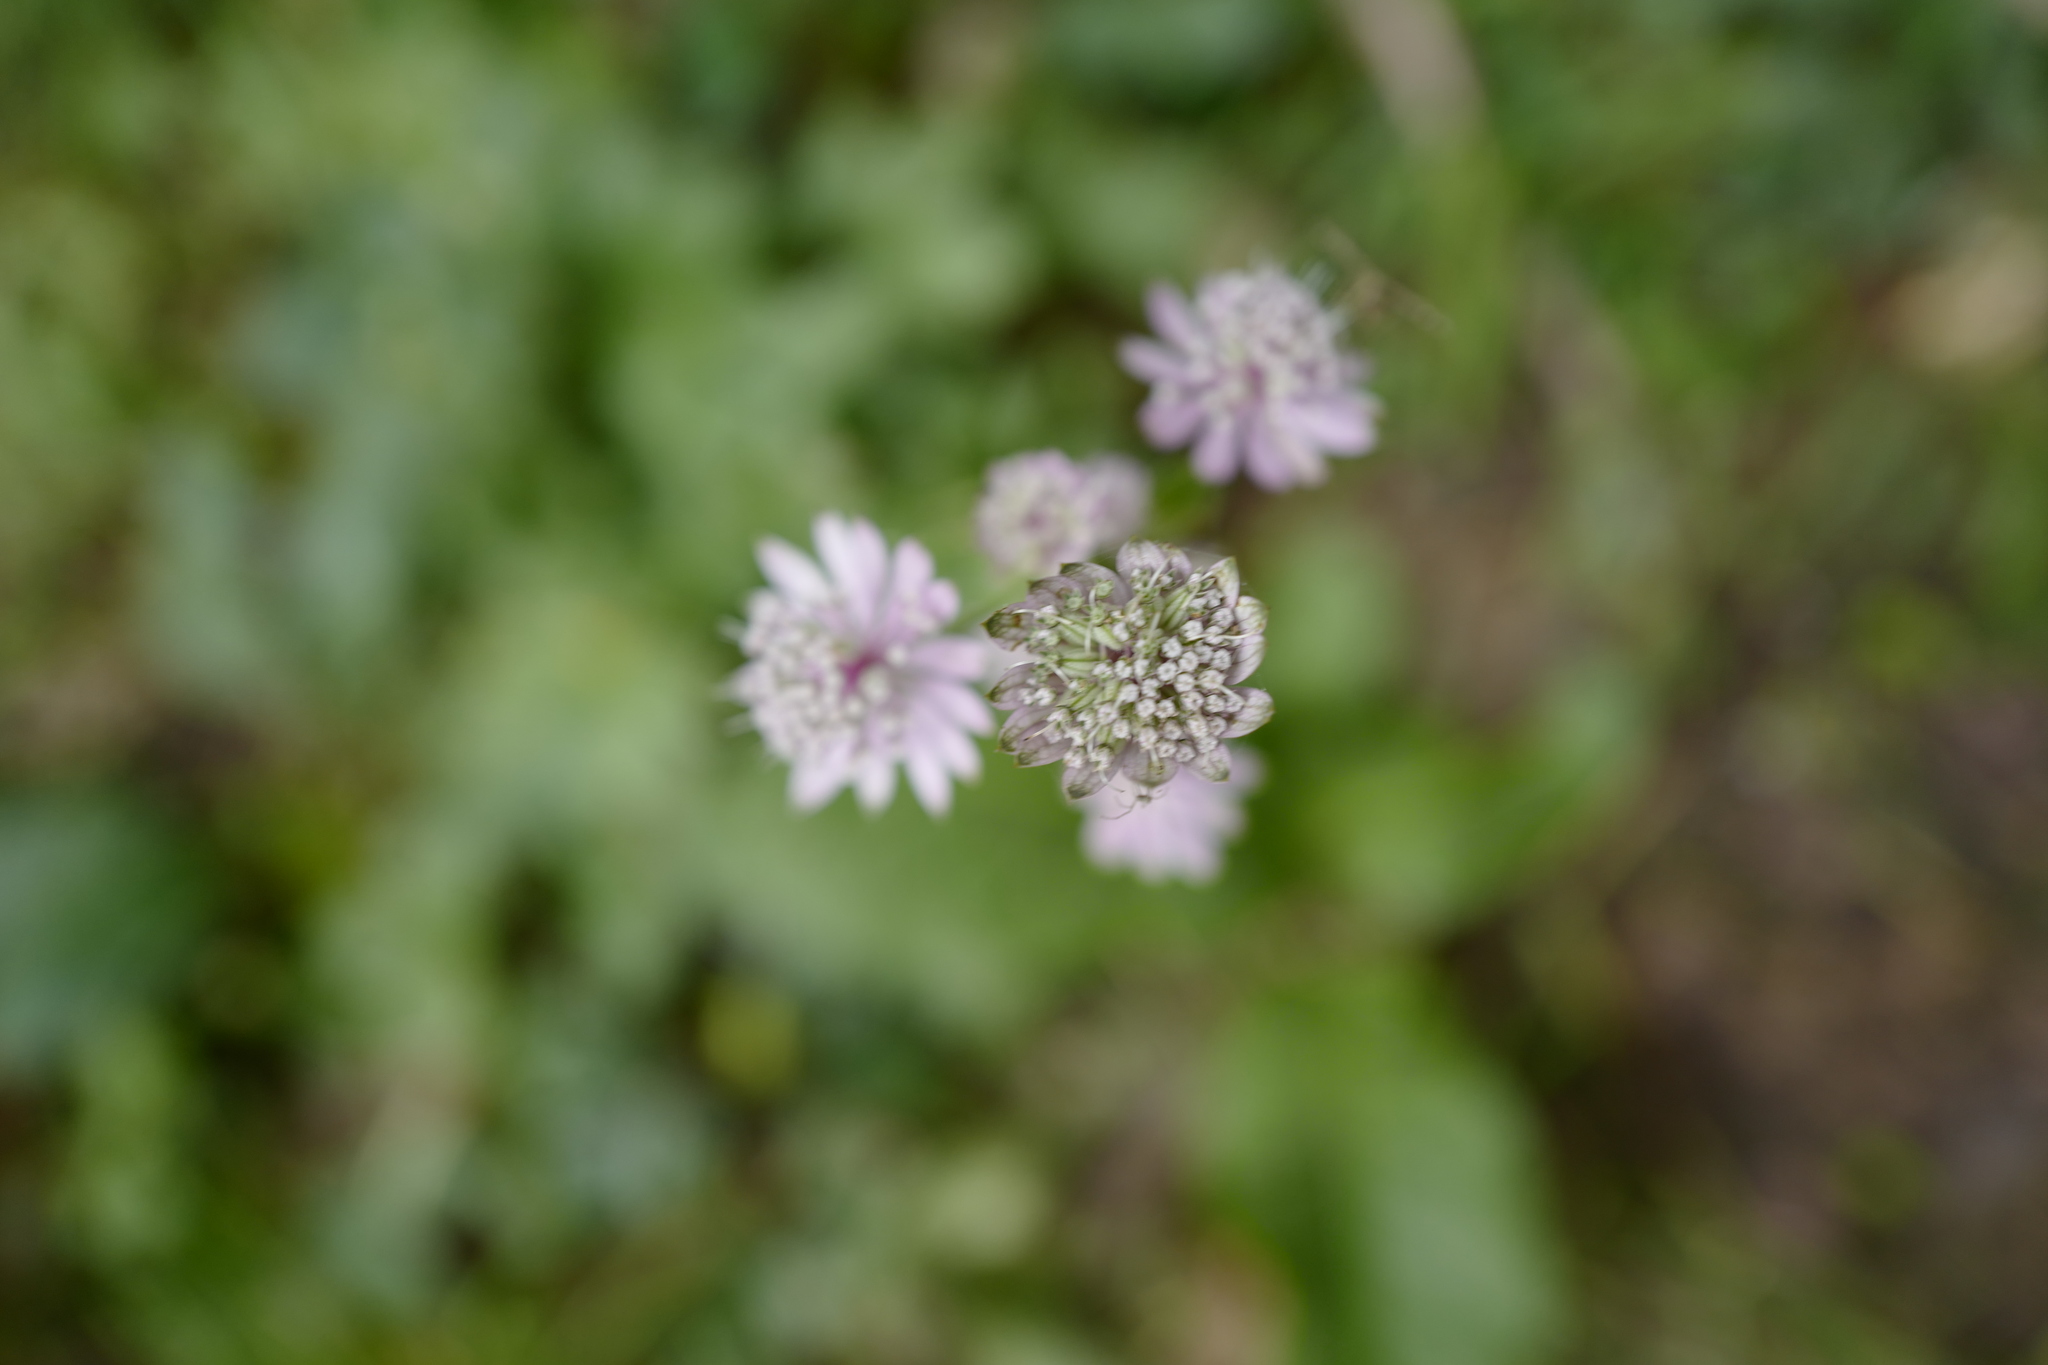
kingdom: Plantae
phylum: Tracheophyta
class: Magnoliopsida
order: Apiales
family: Apiaceae
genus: Astrantia
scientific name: Astrantia major
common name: Greater masterwort
